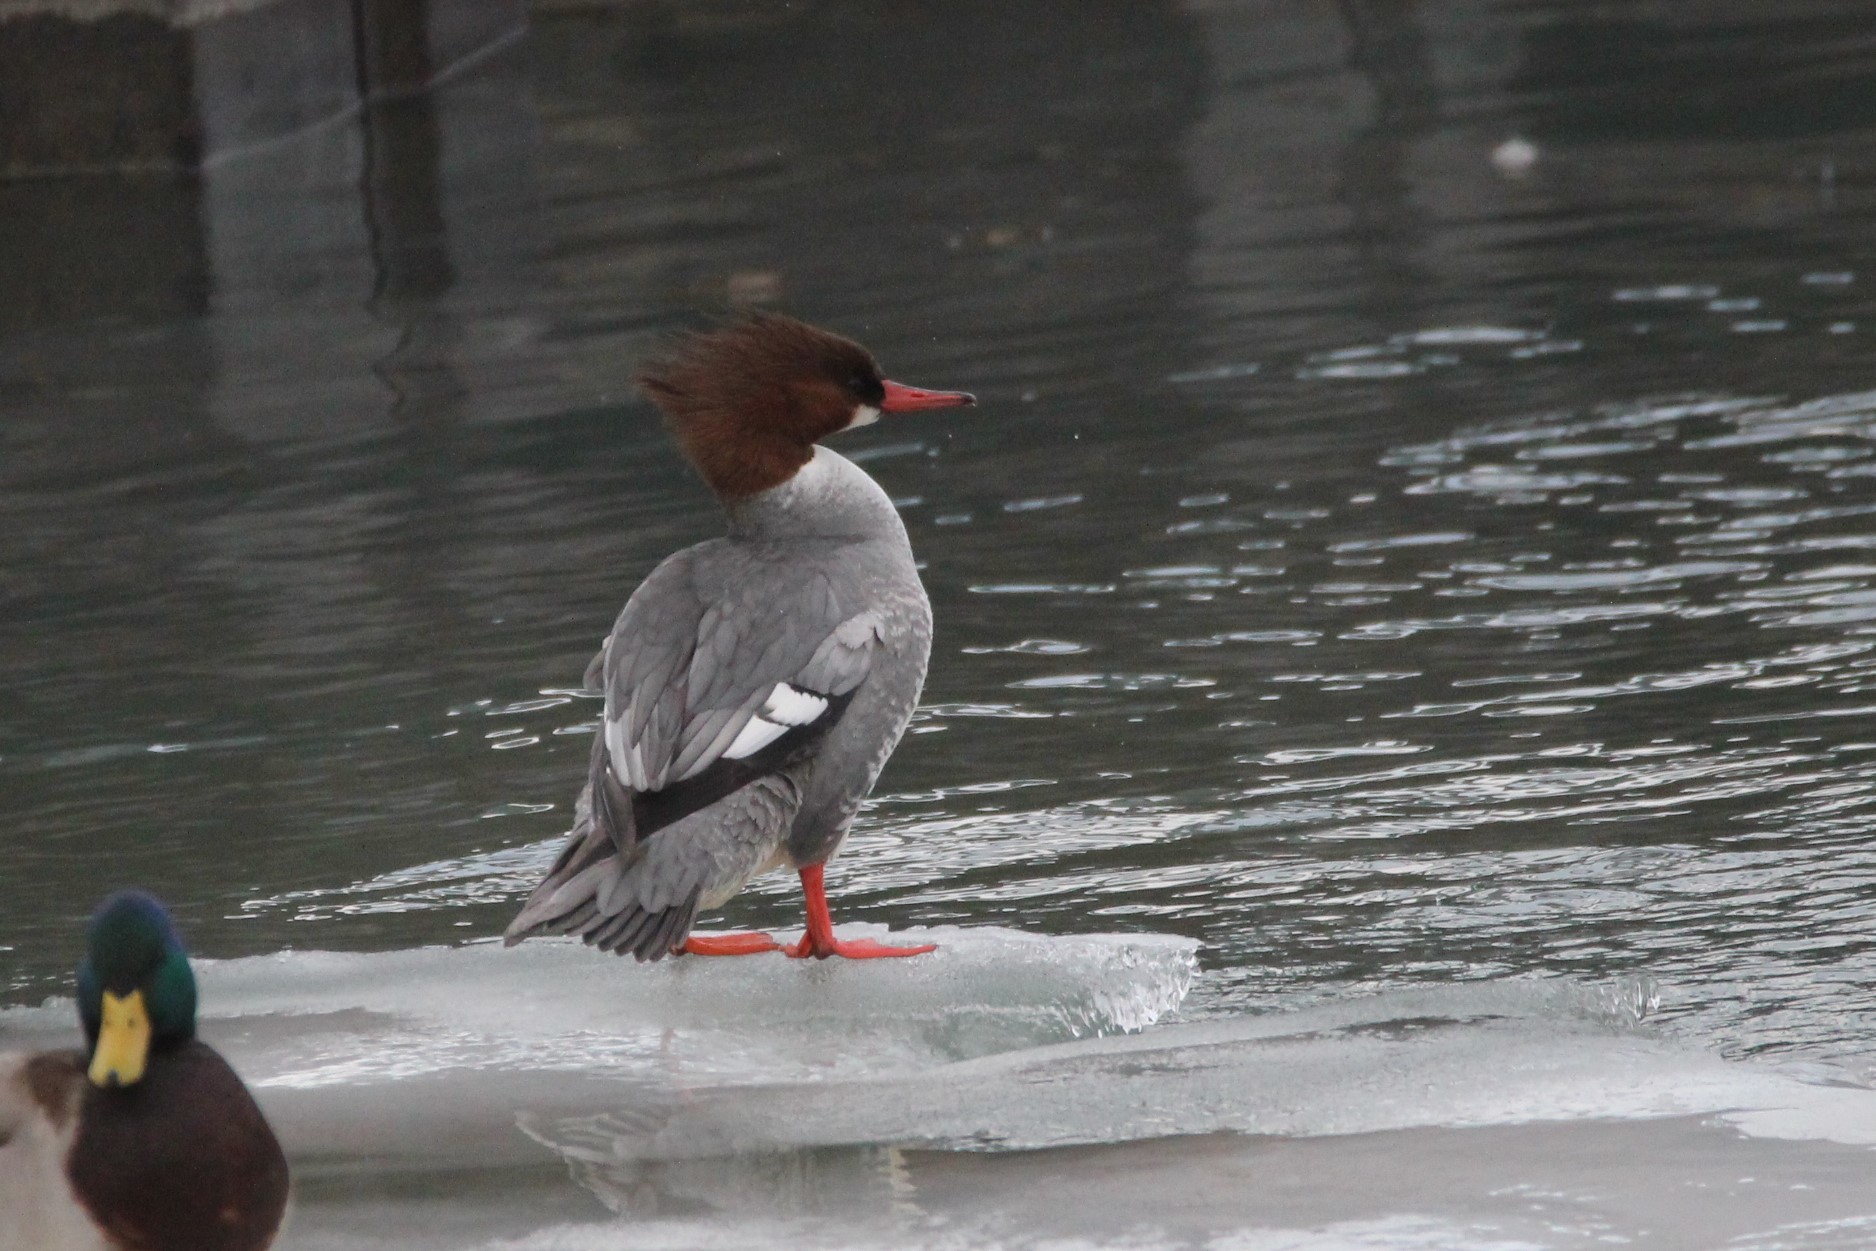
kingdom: Animalia
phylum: Chordata
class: Aves
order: Anseriformes
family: Anatidae
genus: Mergus
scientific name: Mergus merganser
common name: Common merganser
